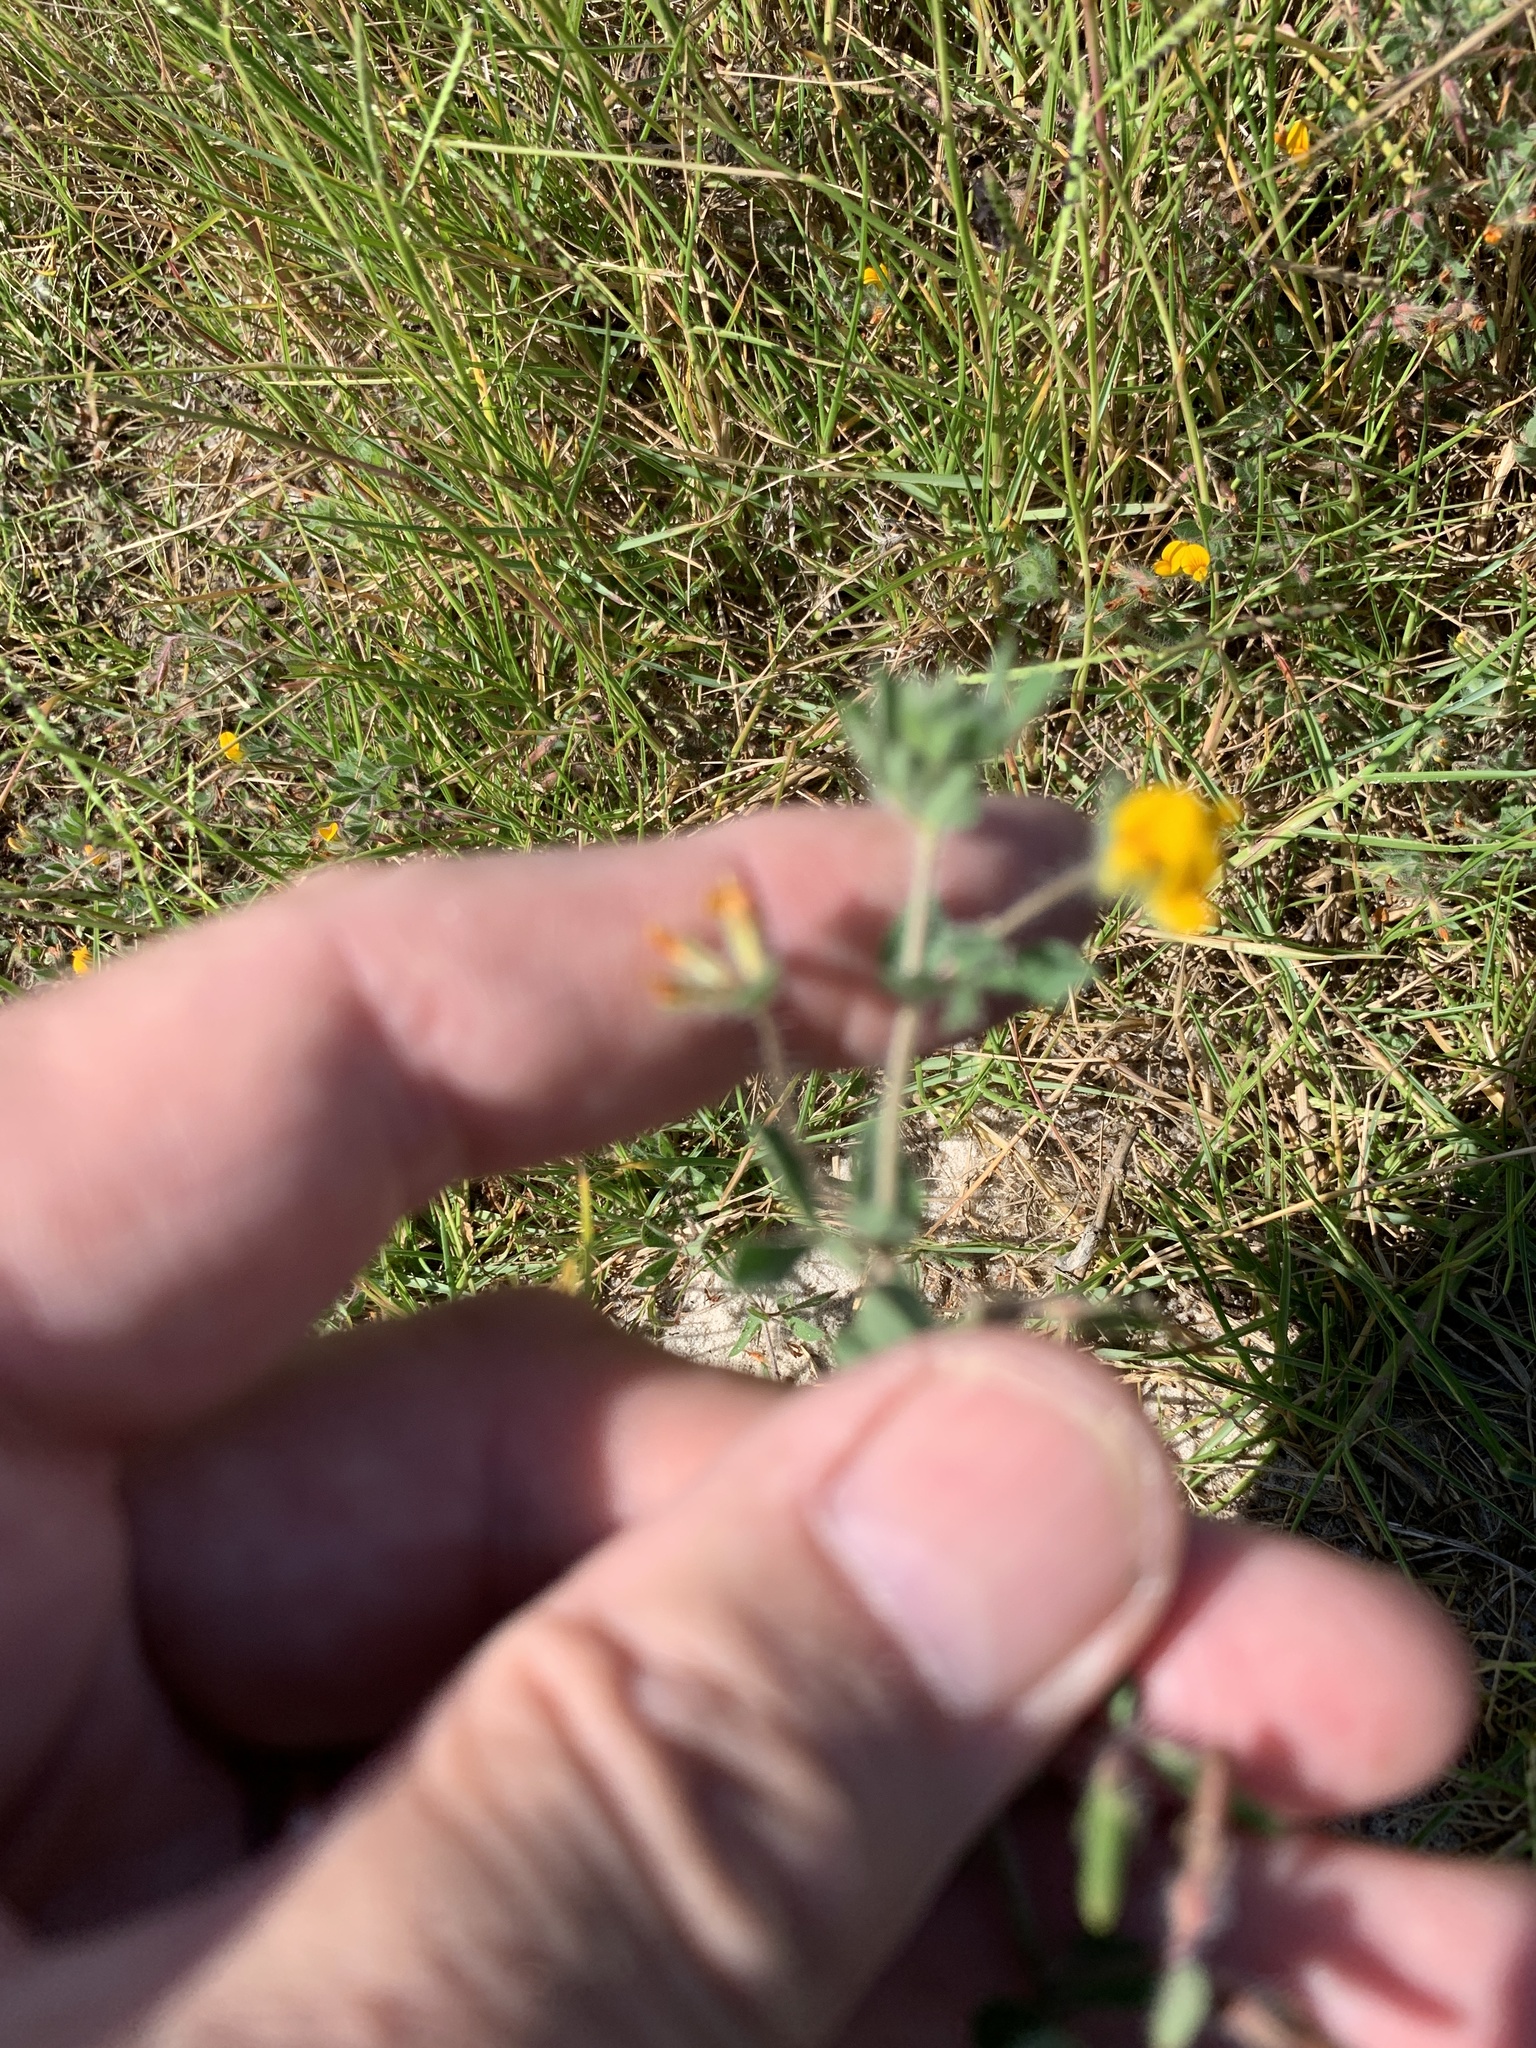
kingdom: Plantae
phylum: Tracheophyta
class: Magnoliopsida
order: Fabales
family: Fabaceae
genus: Lotus
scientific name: Lotus subbiflorus
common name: Hairy bird's-foot trefoil
